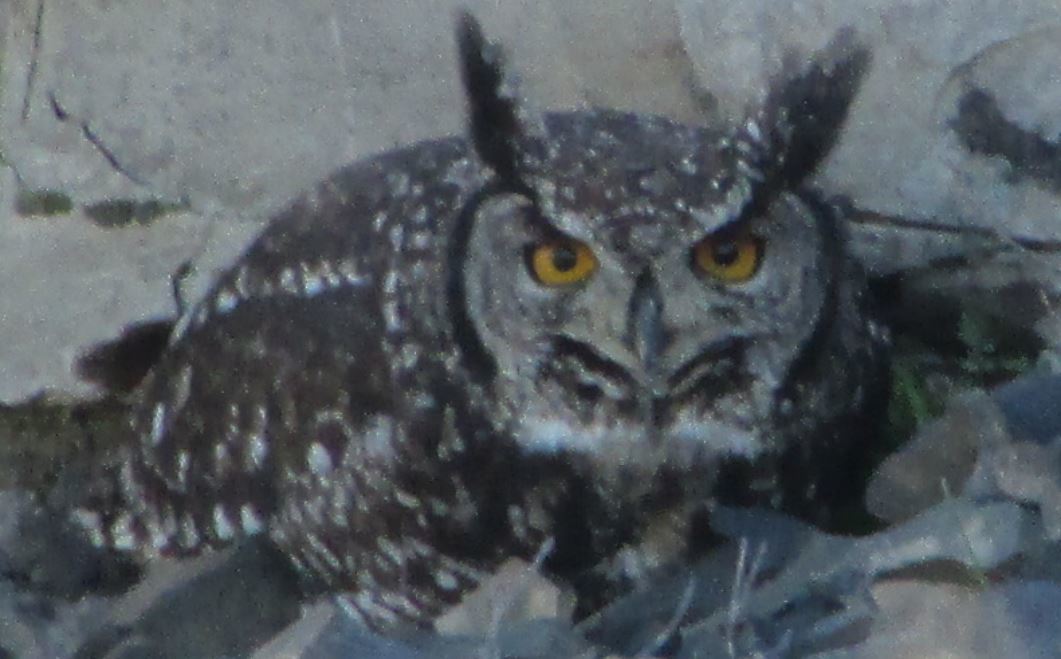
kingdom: Animalia
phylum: Chordata
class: Aves
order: Strigiformes
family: Strigidae
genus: Bubo
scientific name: Bubo africanus
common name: Spotted eagle-owl
